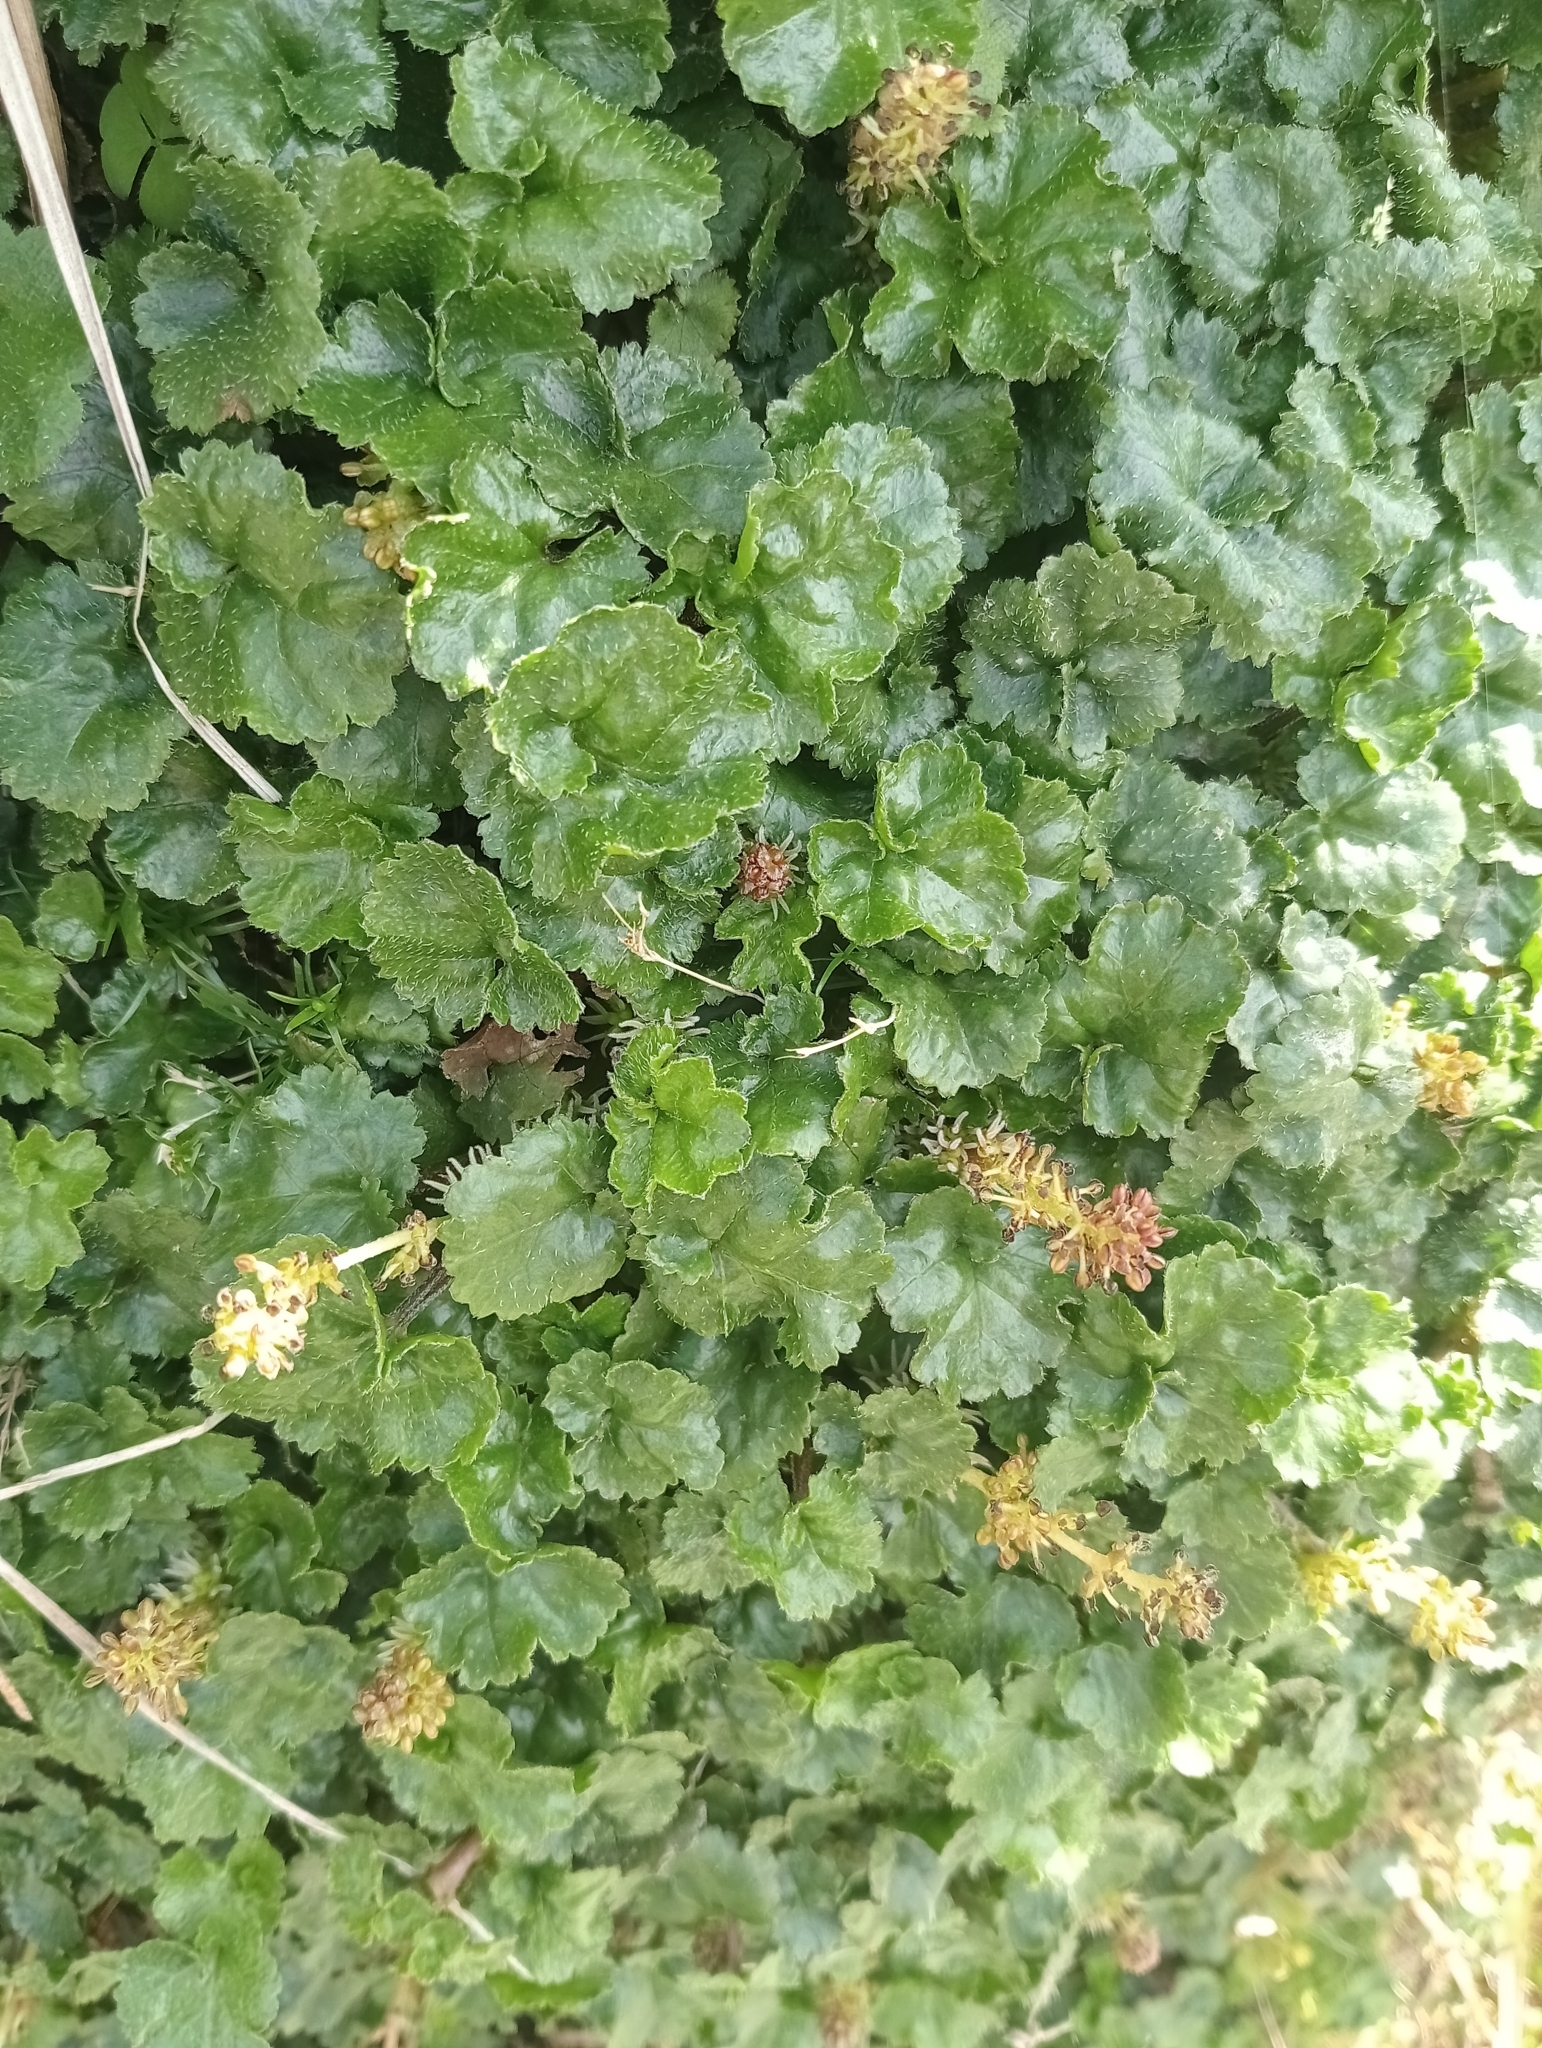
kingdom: Plantae
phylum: Tracheophyta
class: Magnoliopsida
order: Gunnerales
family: Gunneraceae
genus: Gunnera
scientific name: Gunnera monoica
